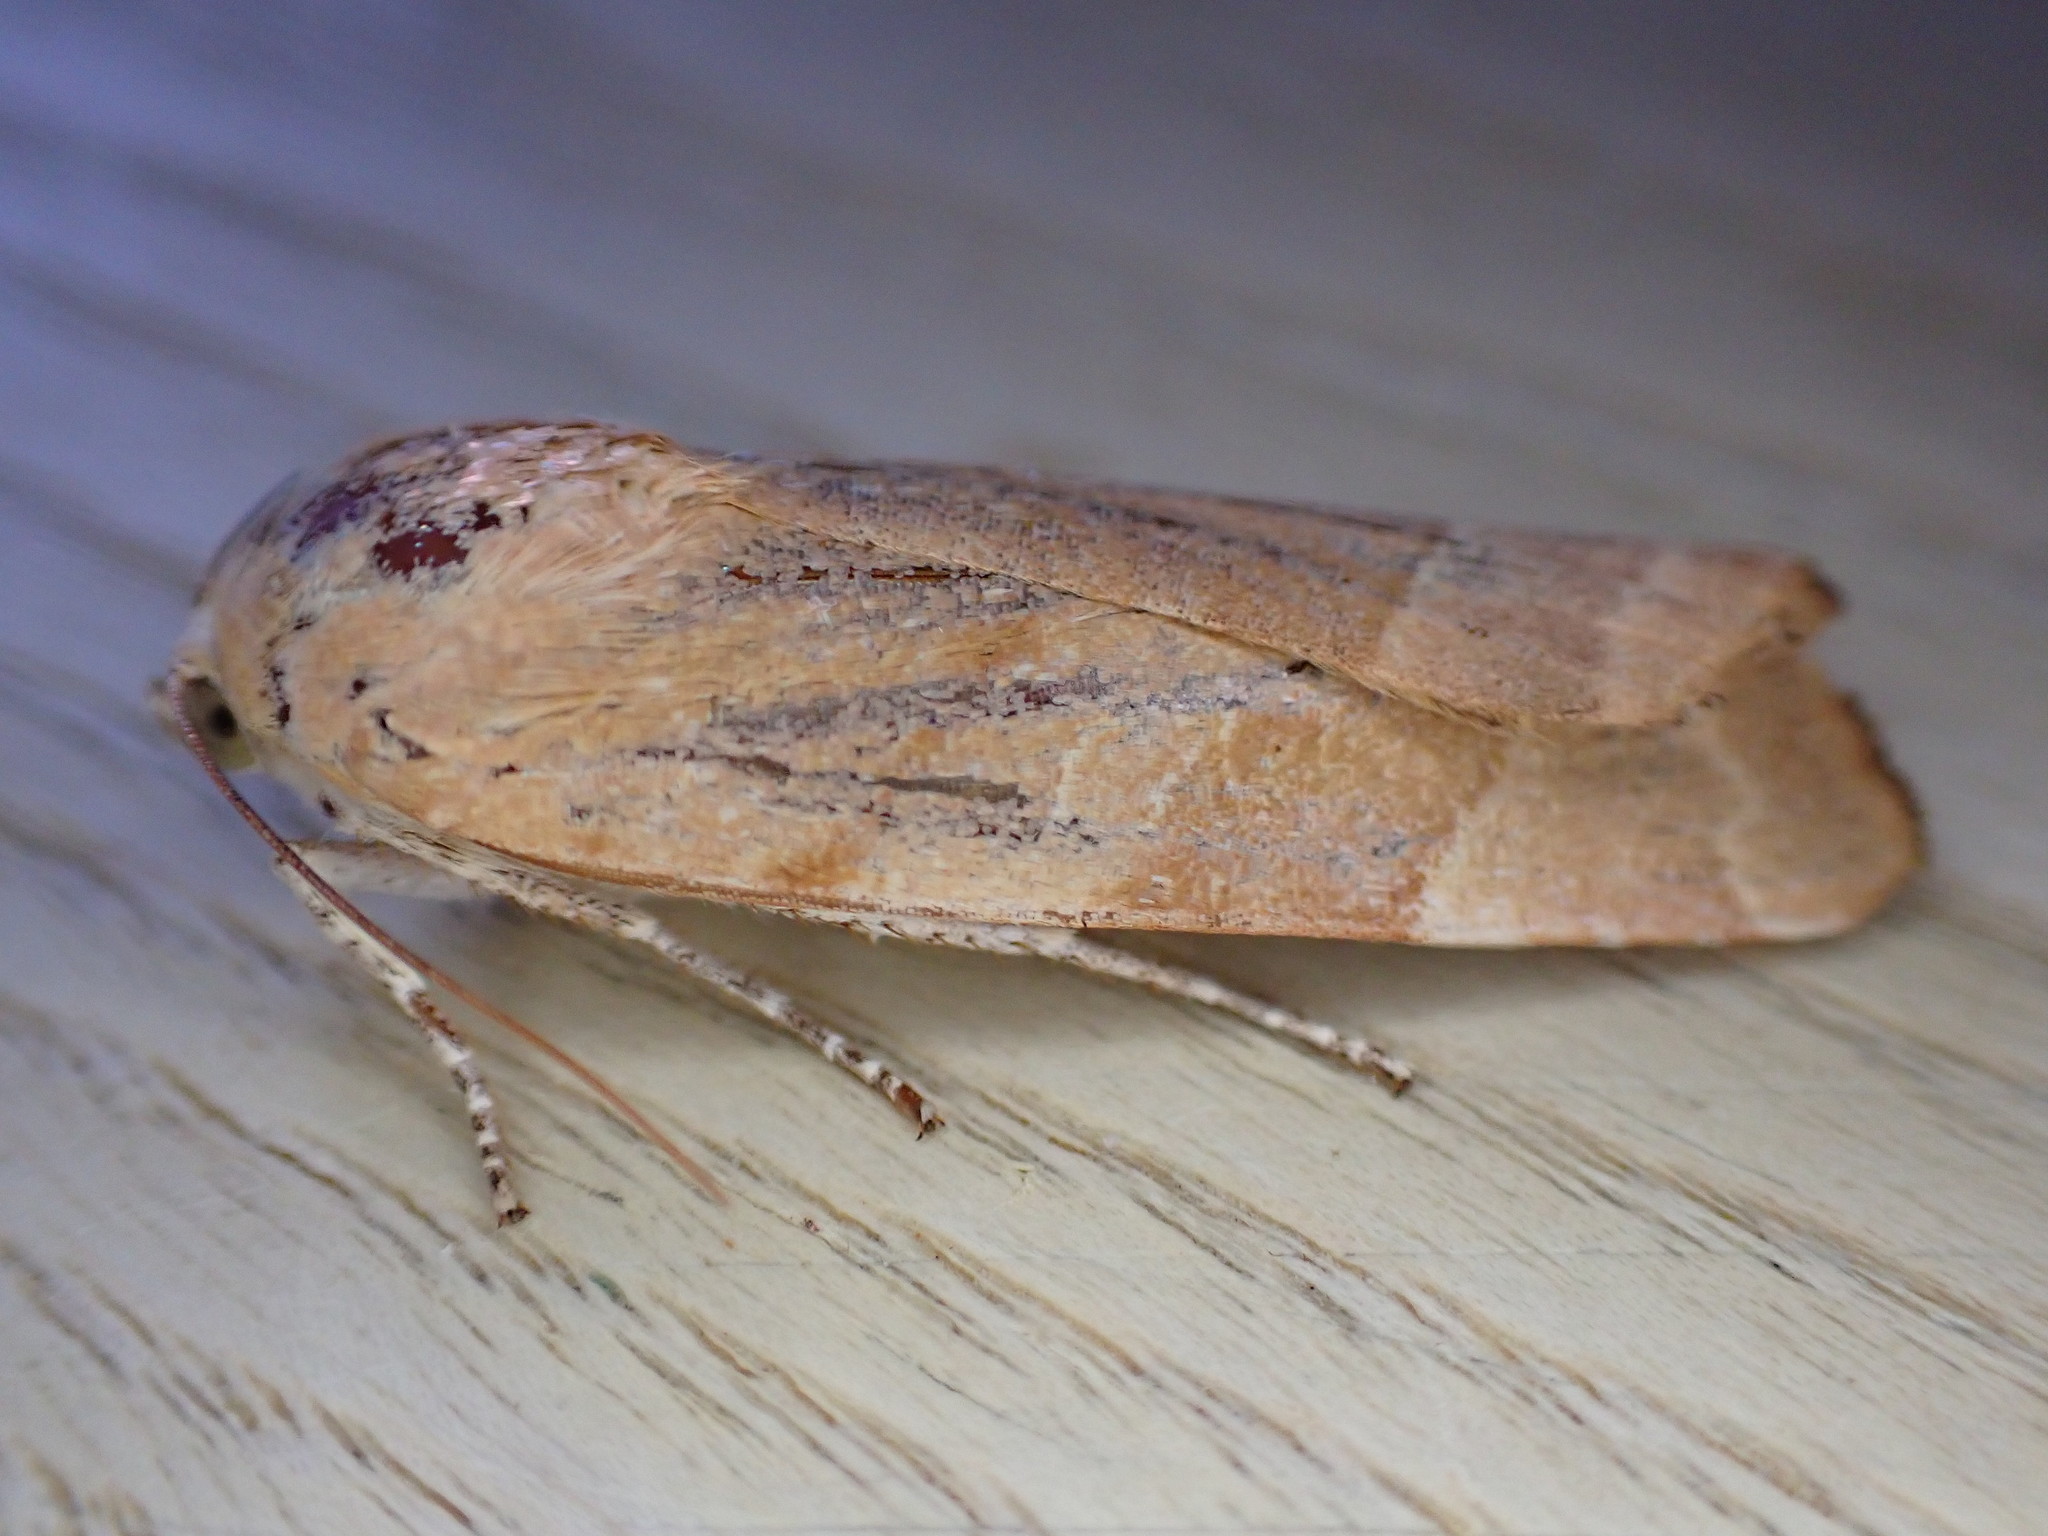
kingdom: Animalia
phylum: Arthropoda
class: Insecta
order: Lepidoptera
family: Noctuidae
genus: Noctua
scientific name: Noctua fimbriata
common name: Broad-bordered yellow underwing
